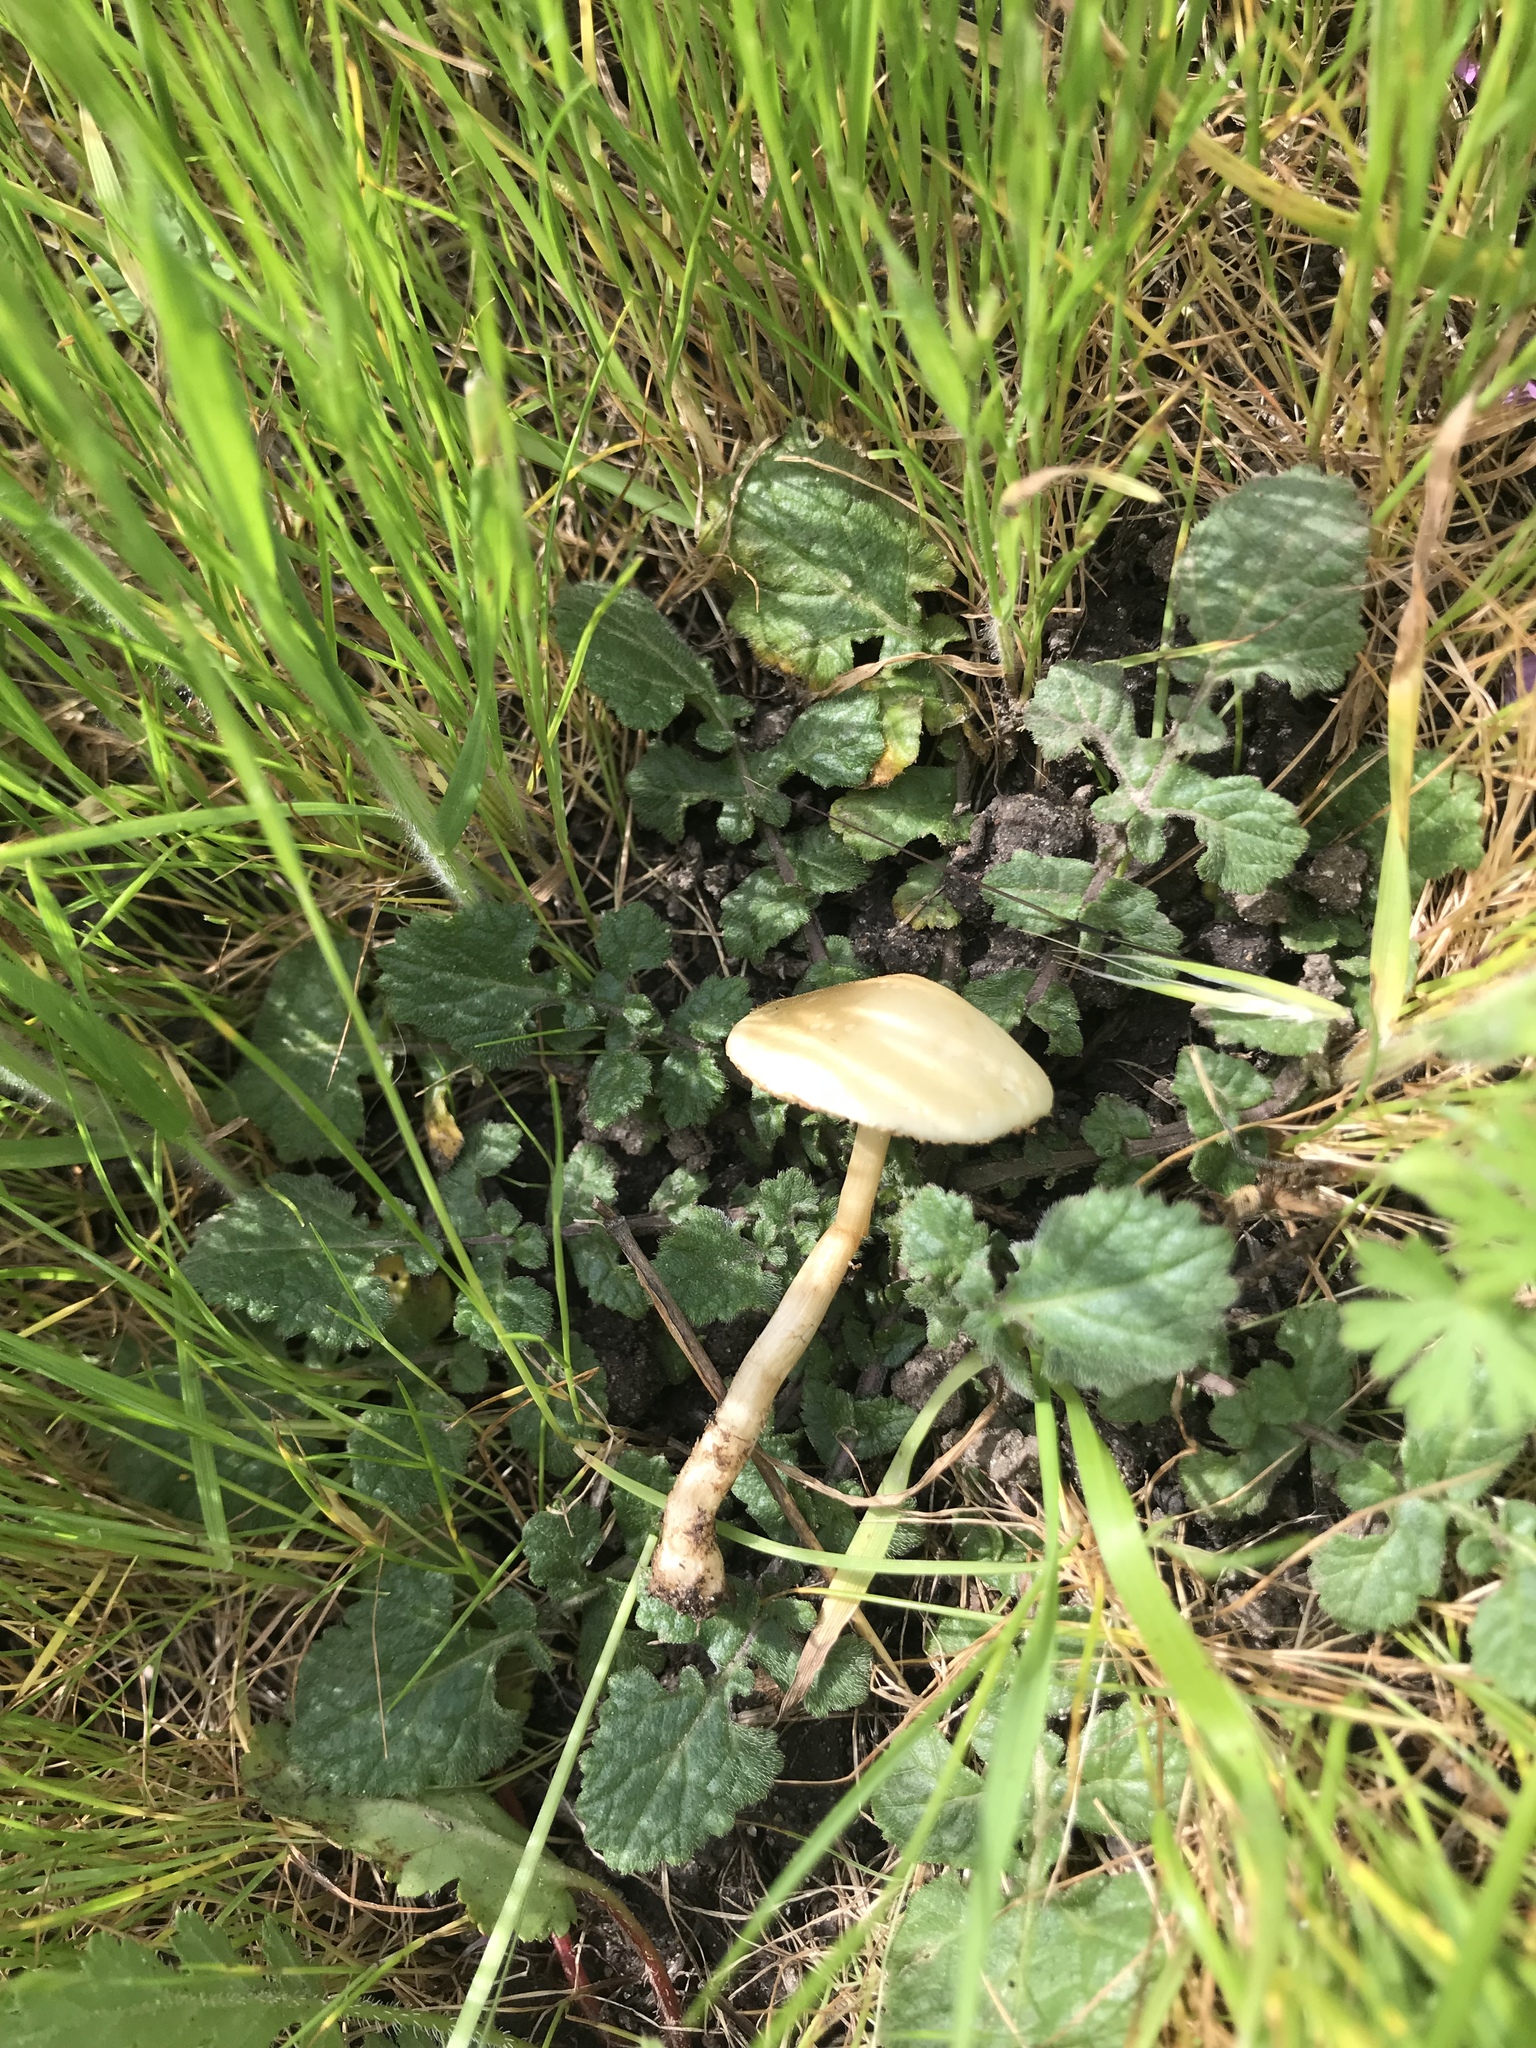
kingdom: Fungi
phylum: Basidiomycota
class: Agaricomycetes
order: Agaricales
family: Strophariaceae
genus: Agrocybe
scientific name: Agrocybe pediades
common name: Common fieldcap
